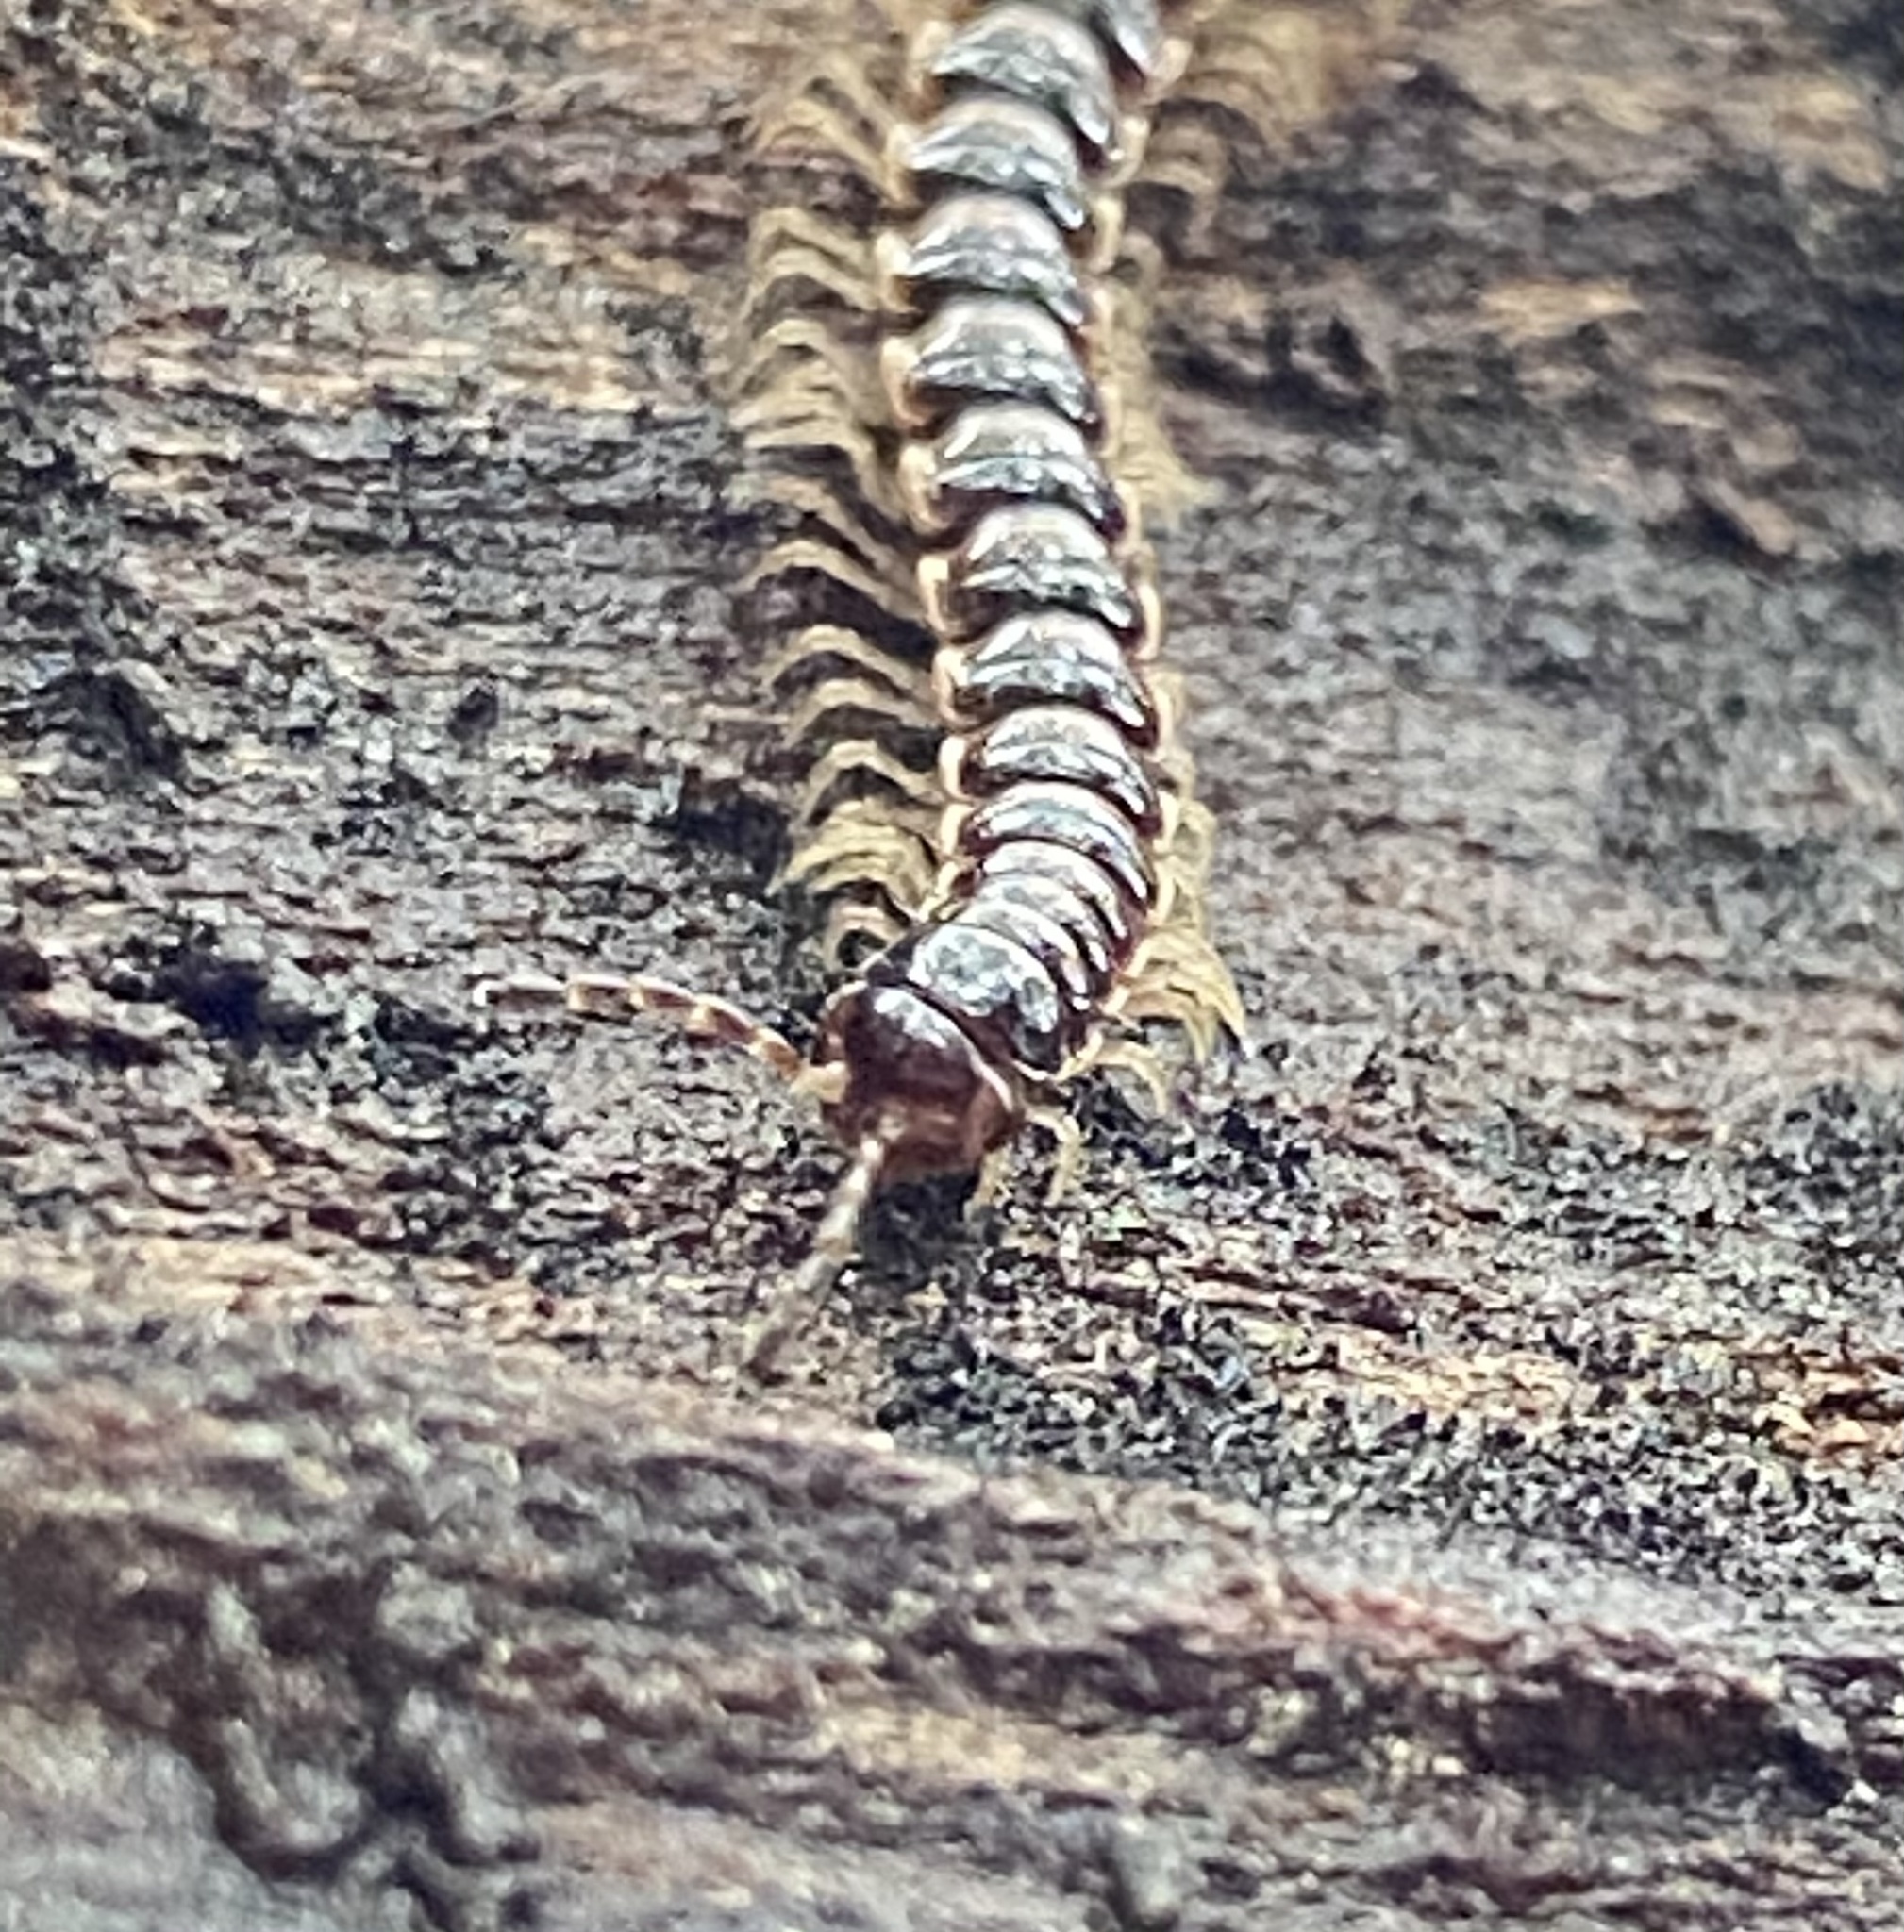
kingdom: Animalia
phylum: Arthropoda
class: Diplopoda
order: Polydesmida
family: Paradoxosomatidae
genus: Oxidus
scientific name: Oxidus gracilis
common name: Greenhouse millipede
